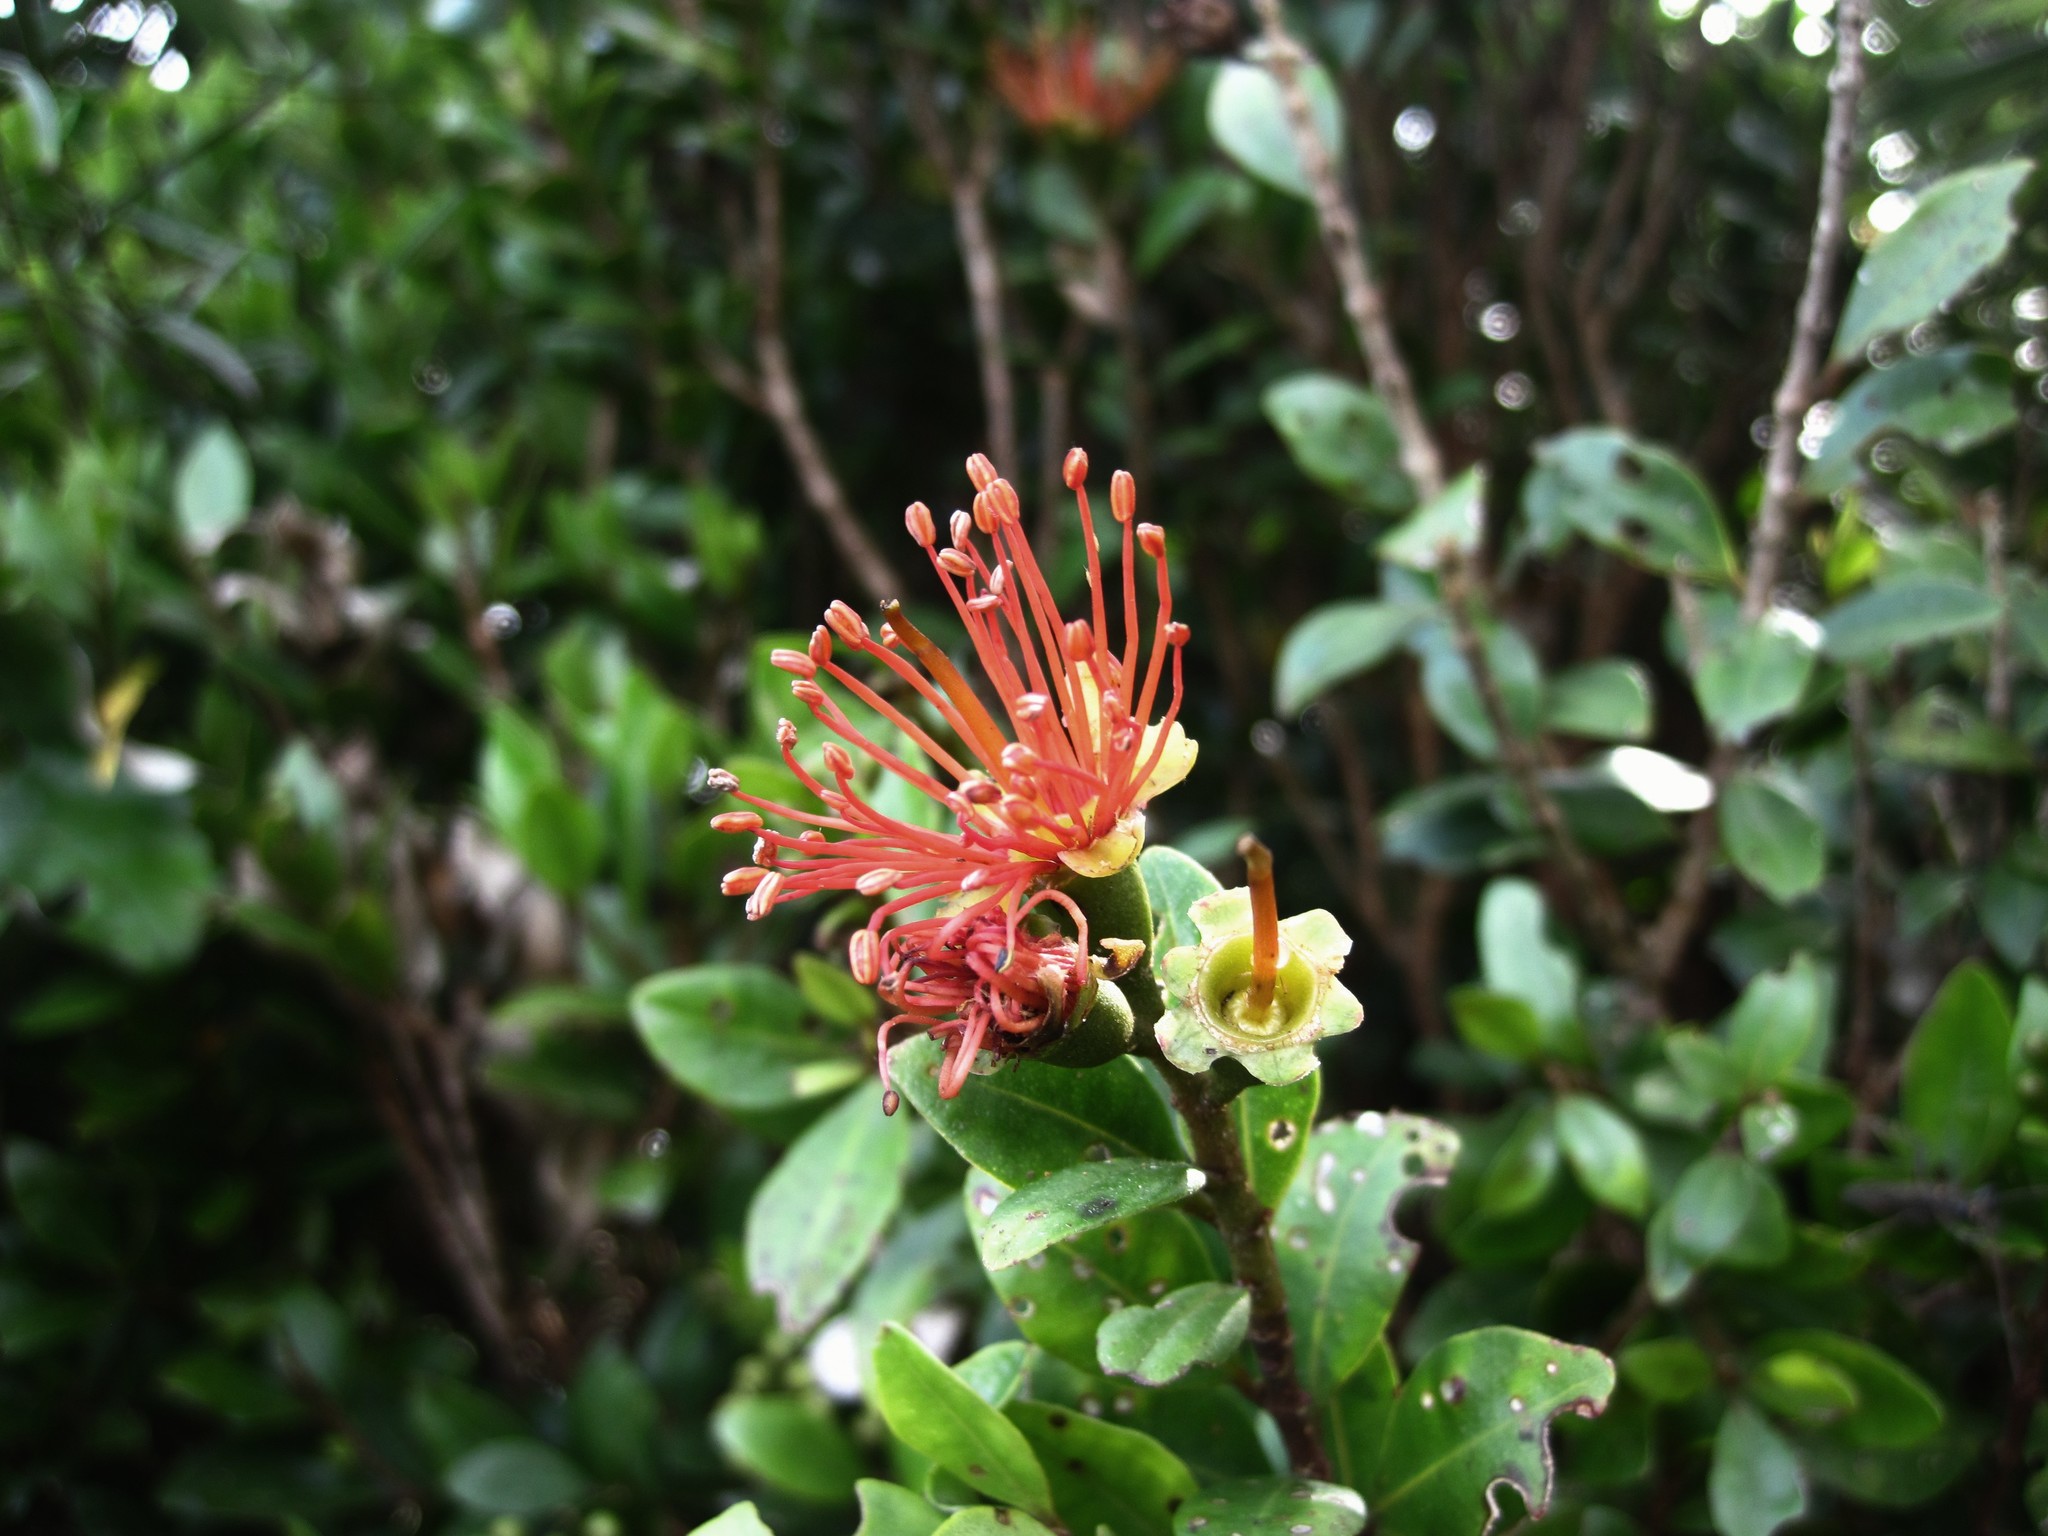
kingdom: Plantae
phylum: Tracheophyta
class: Magnoliopsida
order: Myrtales
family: Myrtaceae
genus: Metrosideros
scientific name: Metrosideros fulgens
